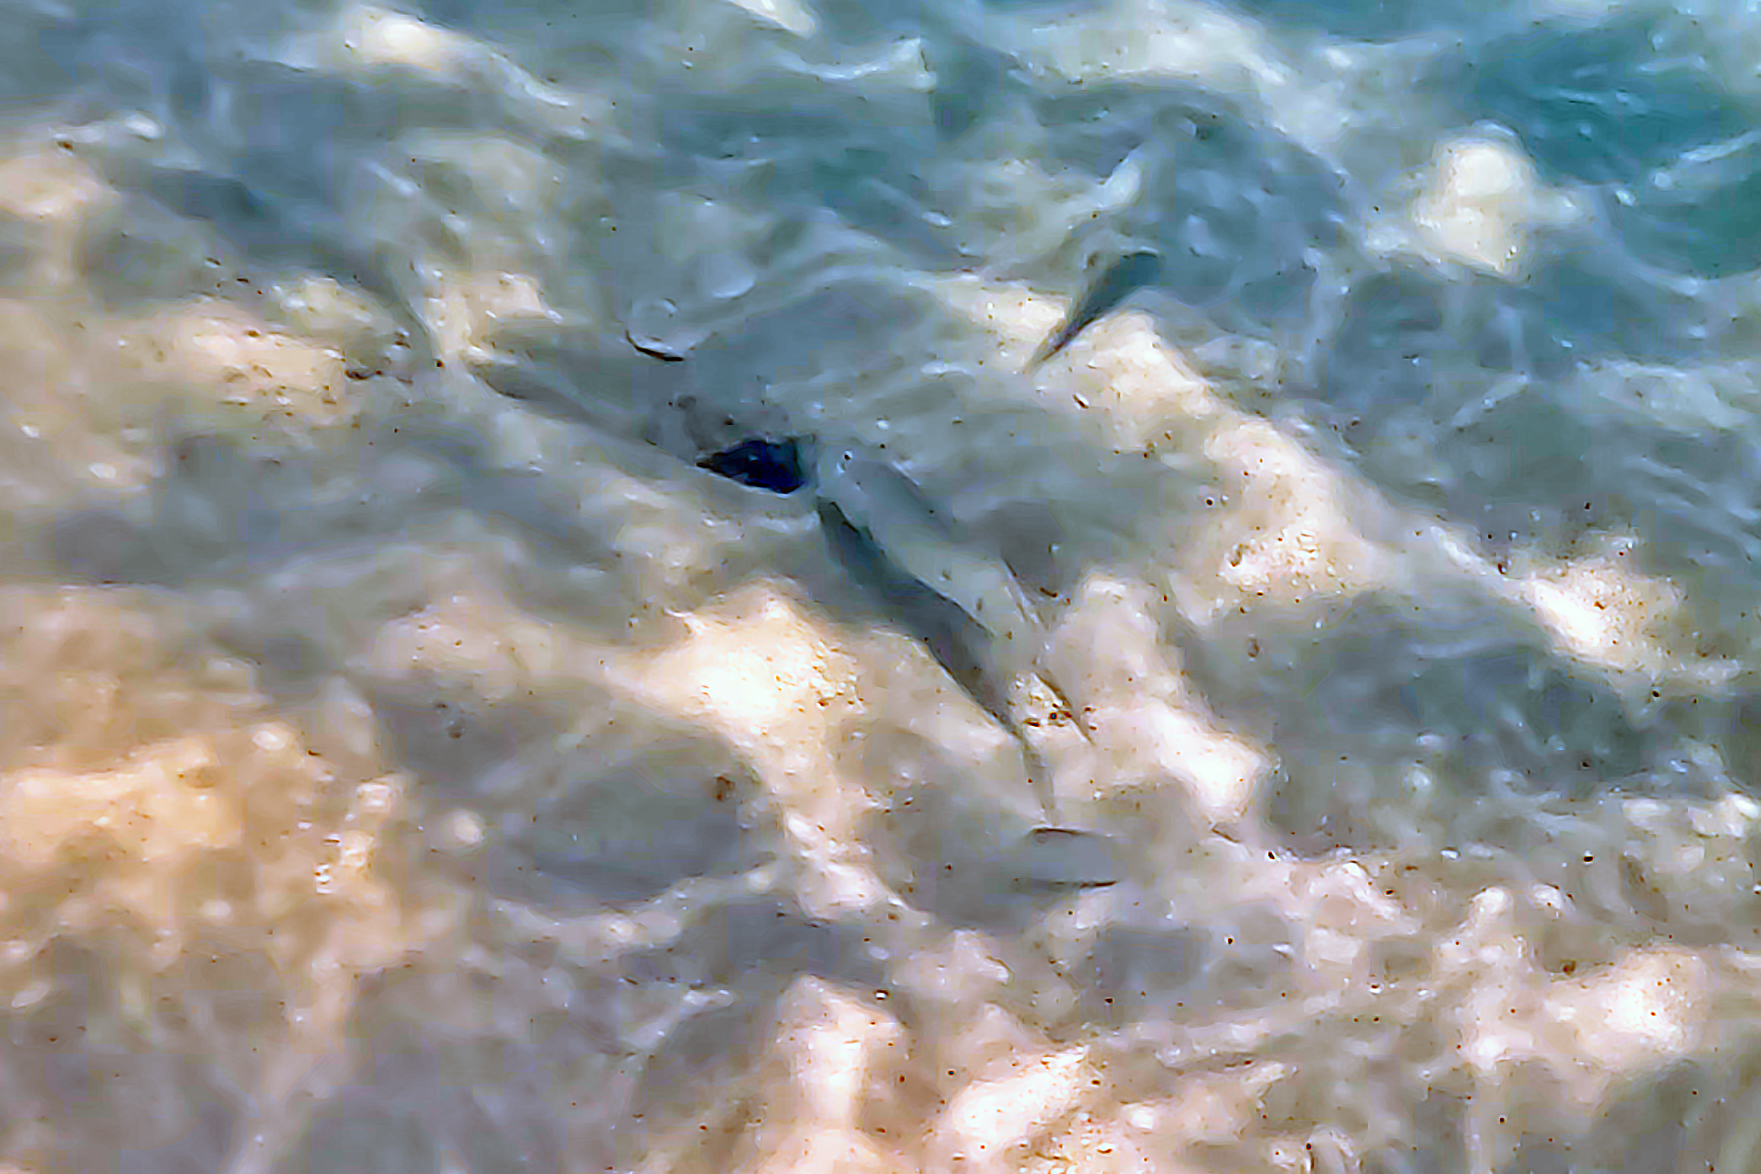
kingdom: Animalia
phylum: Chordata
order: Perciformes
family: Gobiidae
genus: Valenciennea
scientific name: Valenciennea longipinnis
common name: Longfinned goby
